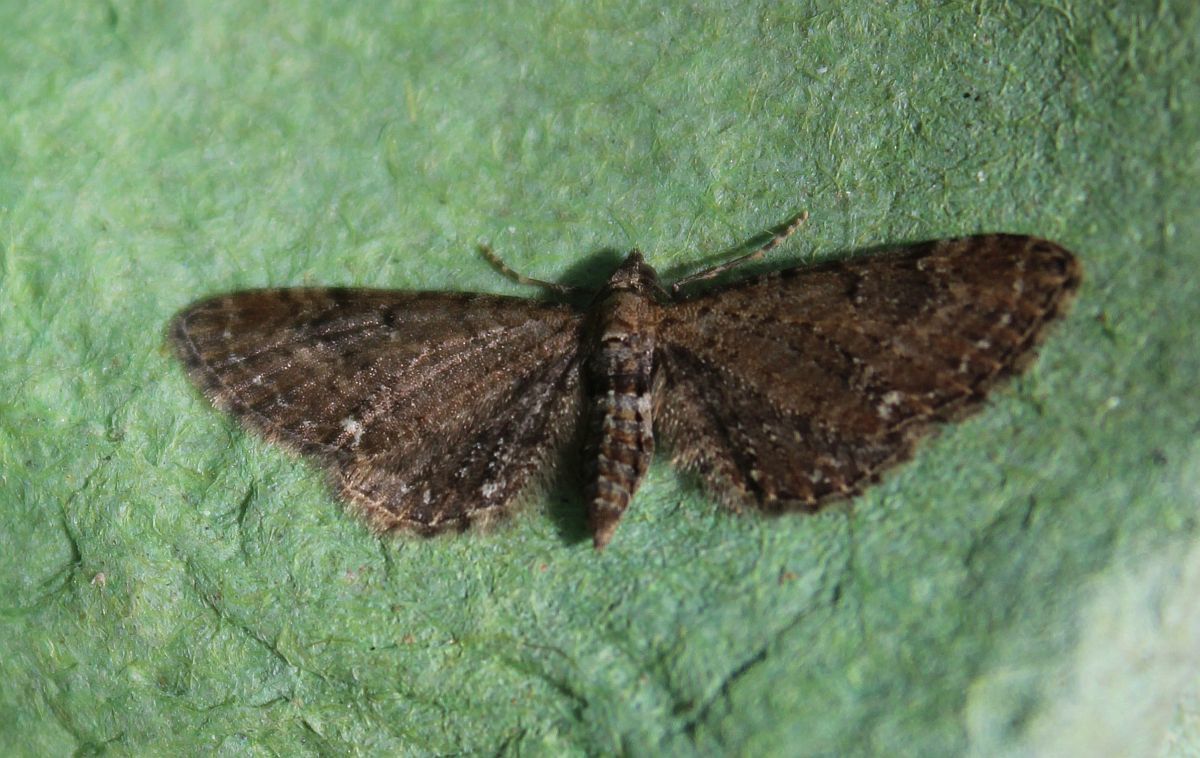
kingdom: Animalia
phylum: Arthropoda
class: Insecta
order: Lepidoptera
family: Geometridae
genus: Eupithecia
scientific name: Eupithecia abbreviata
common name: Brindled pug
